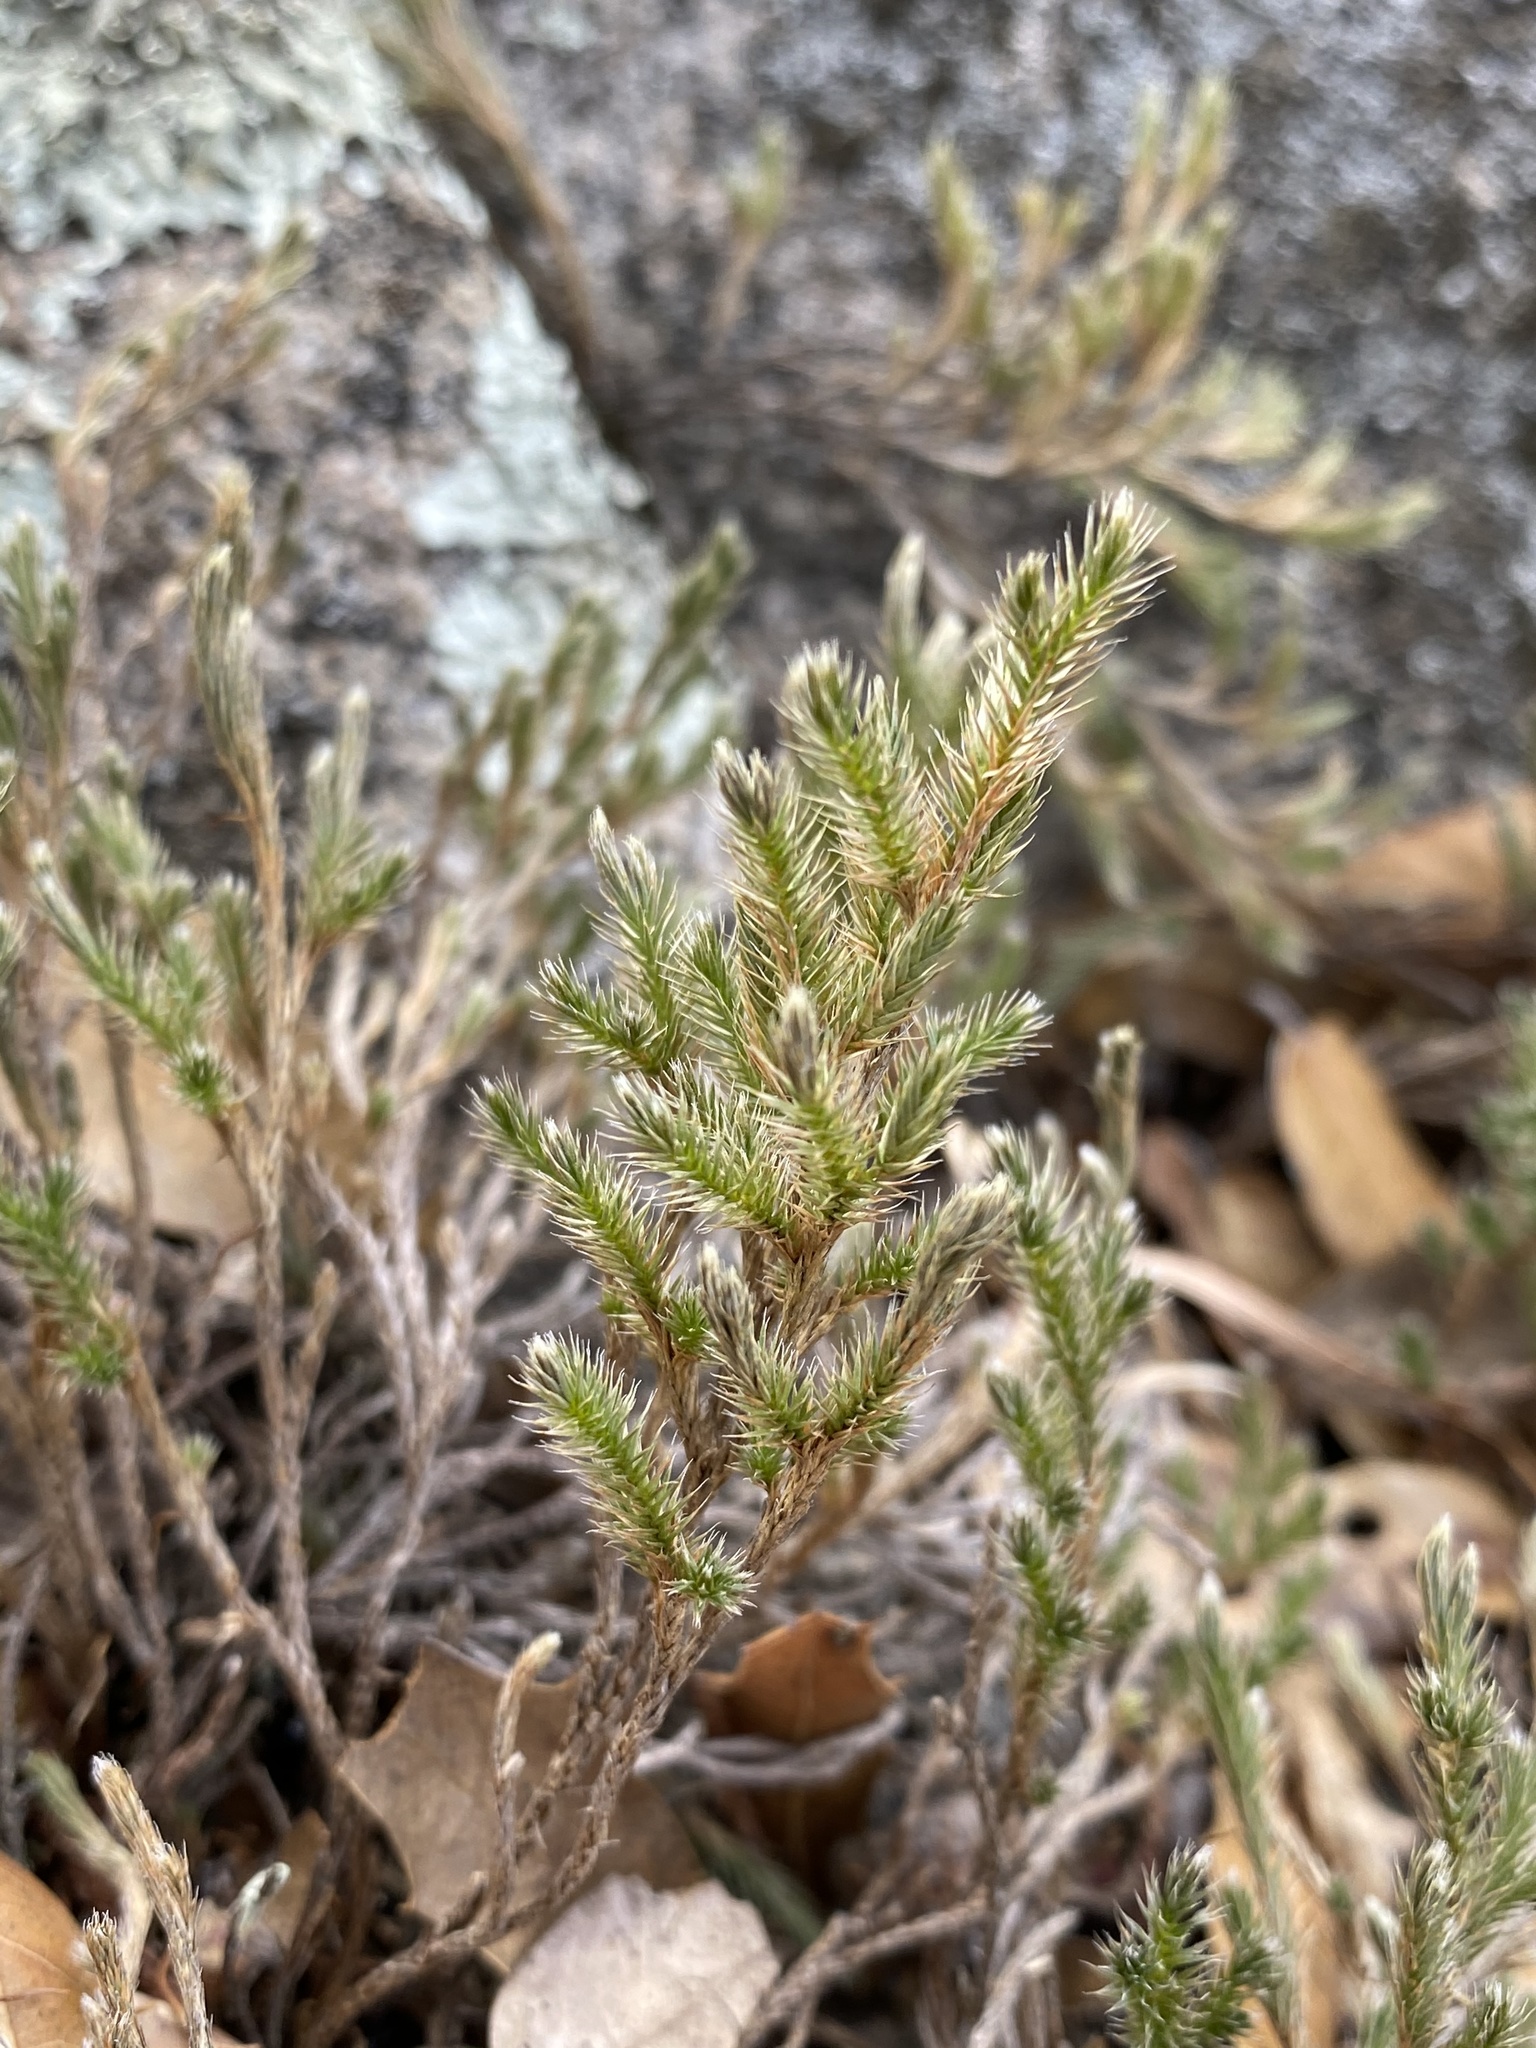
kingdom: Plantae
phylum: Tracheophyta
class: Lycopodiopsida
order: Selaginellales
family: Selaginellaceae
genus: Selaginella
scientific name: Selaginella rupincola
